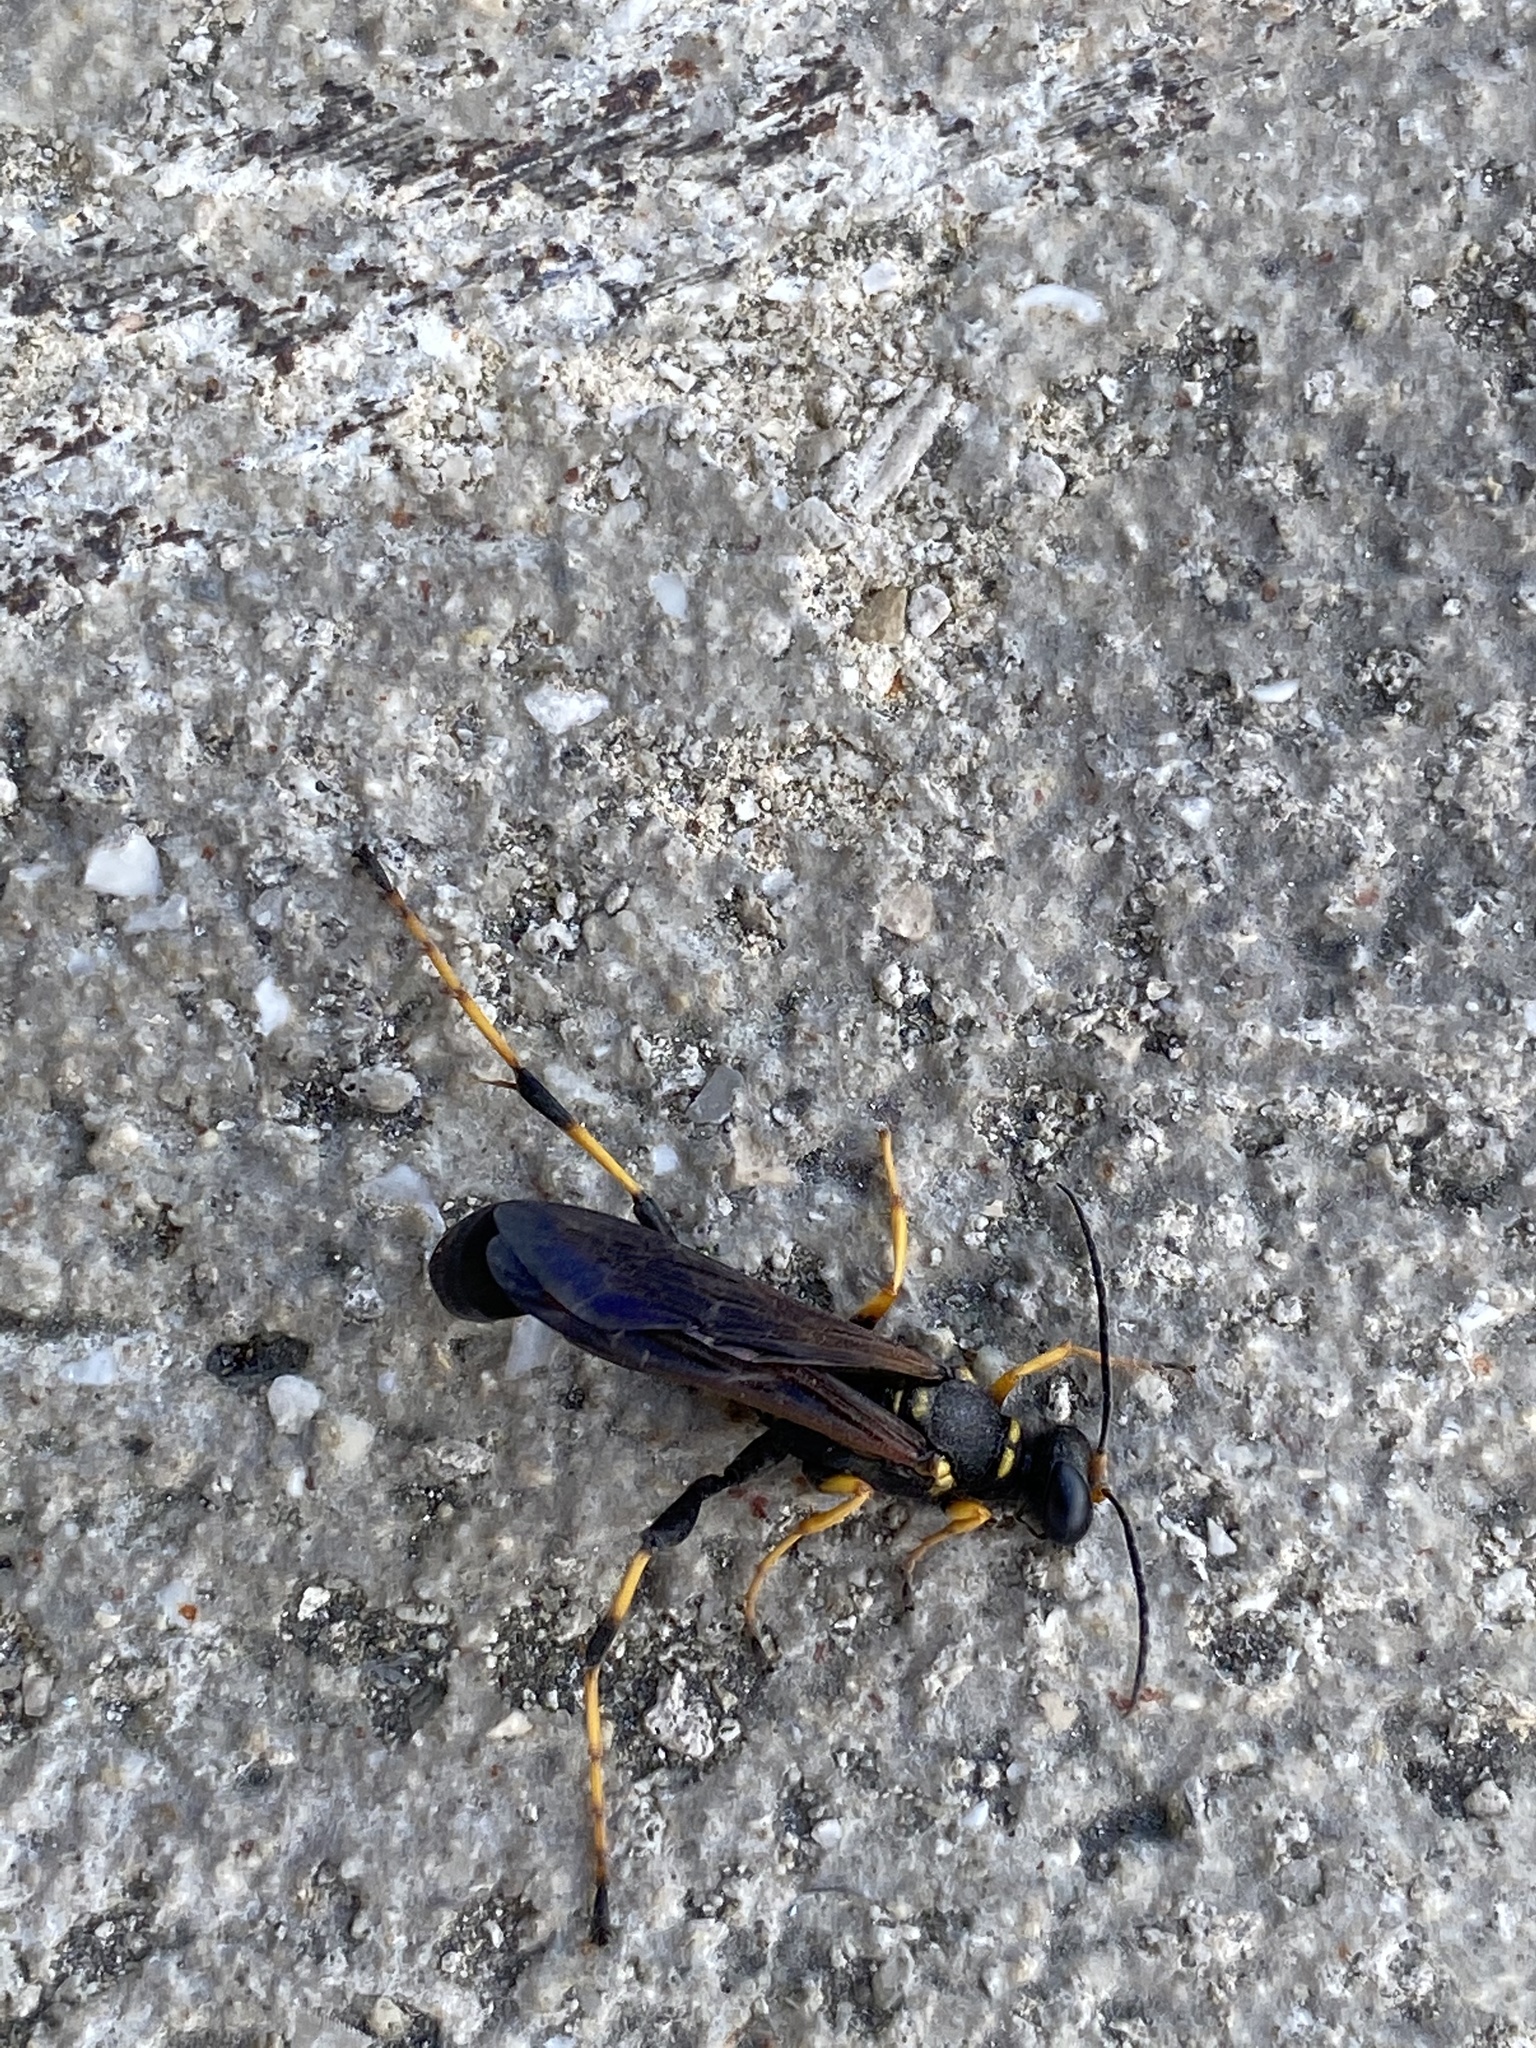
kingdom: Animalia
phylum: Arthropoda
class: Insecta
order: Hymenoptera
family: Sphecidae
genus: Sceliphron
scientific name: Sceliphron caementarium
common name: Mud dauber
